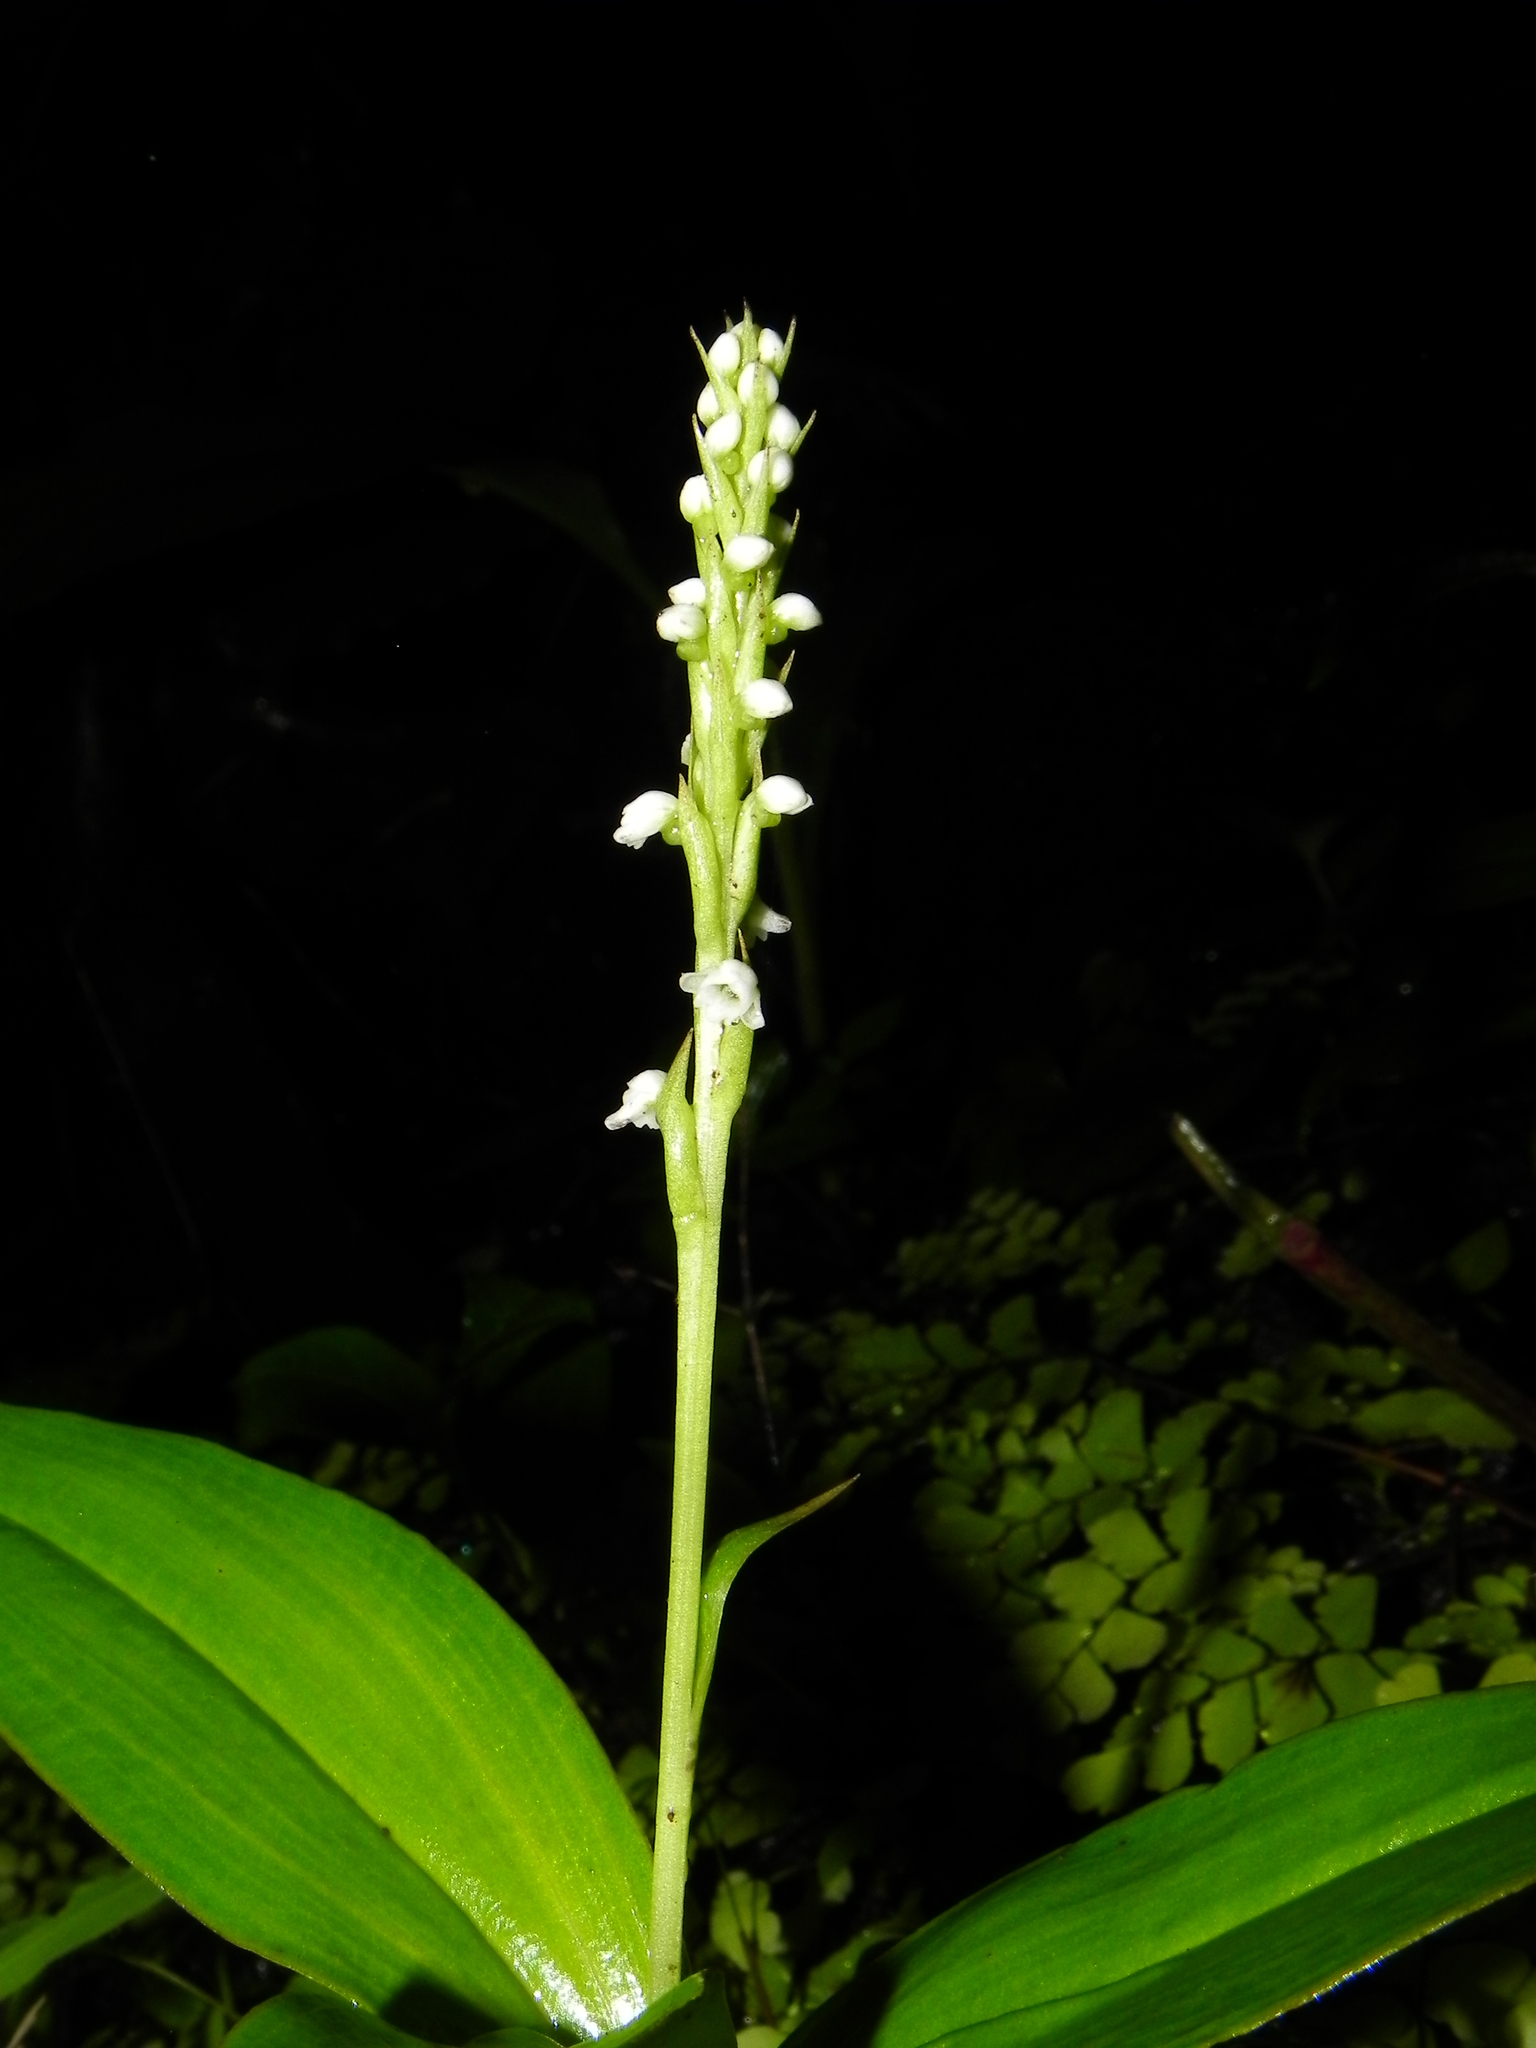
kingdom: Plantae
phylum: Tracheophyta
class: Liliopsida
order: Asparagales
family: Orchidaceae
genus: Peristylus
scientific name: Peristylus lawii
